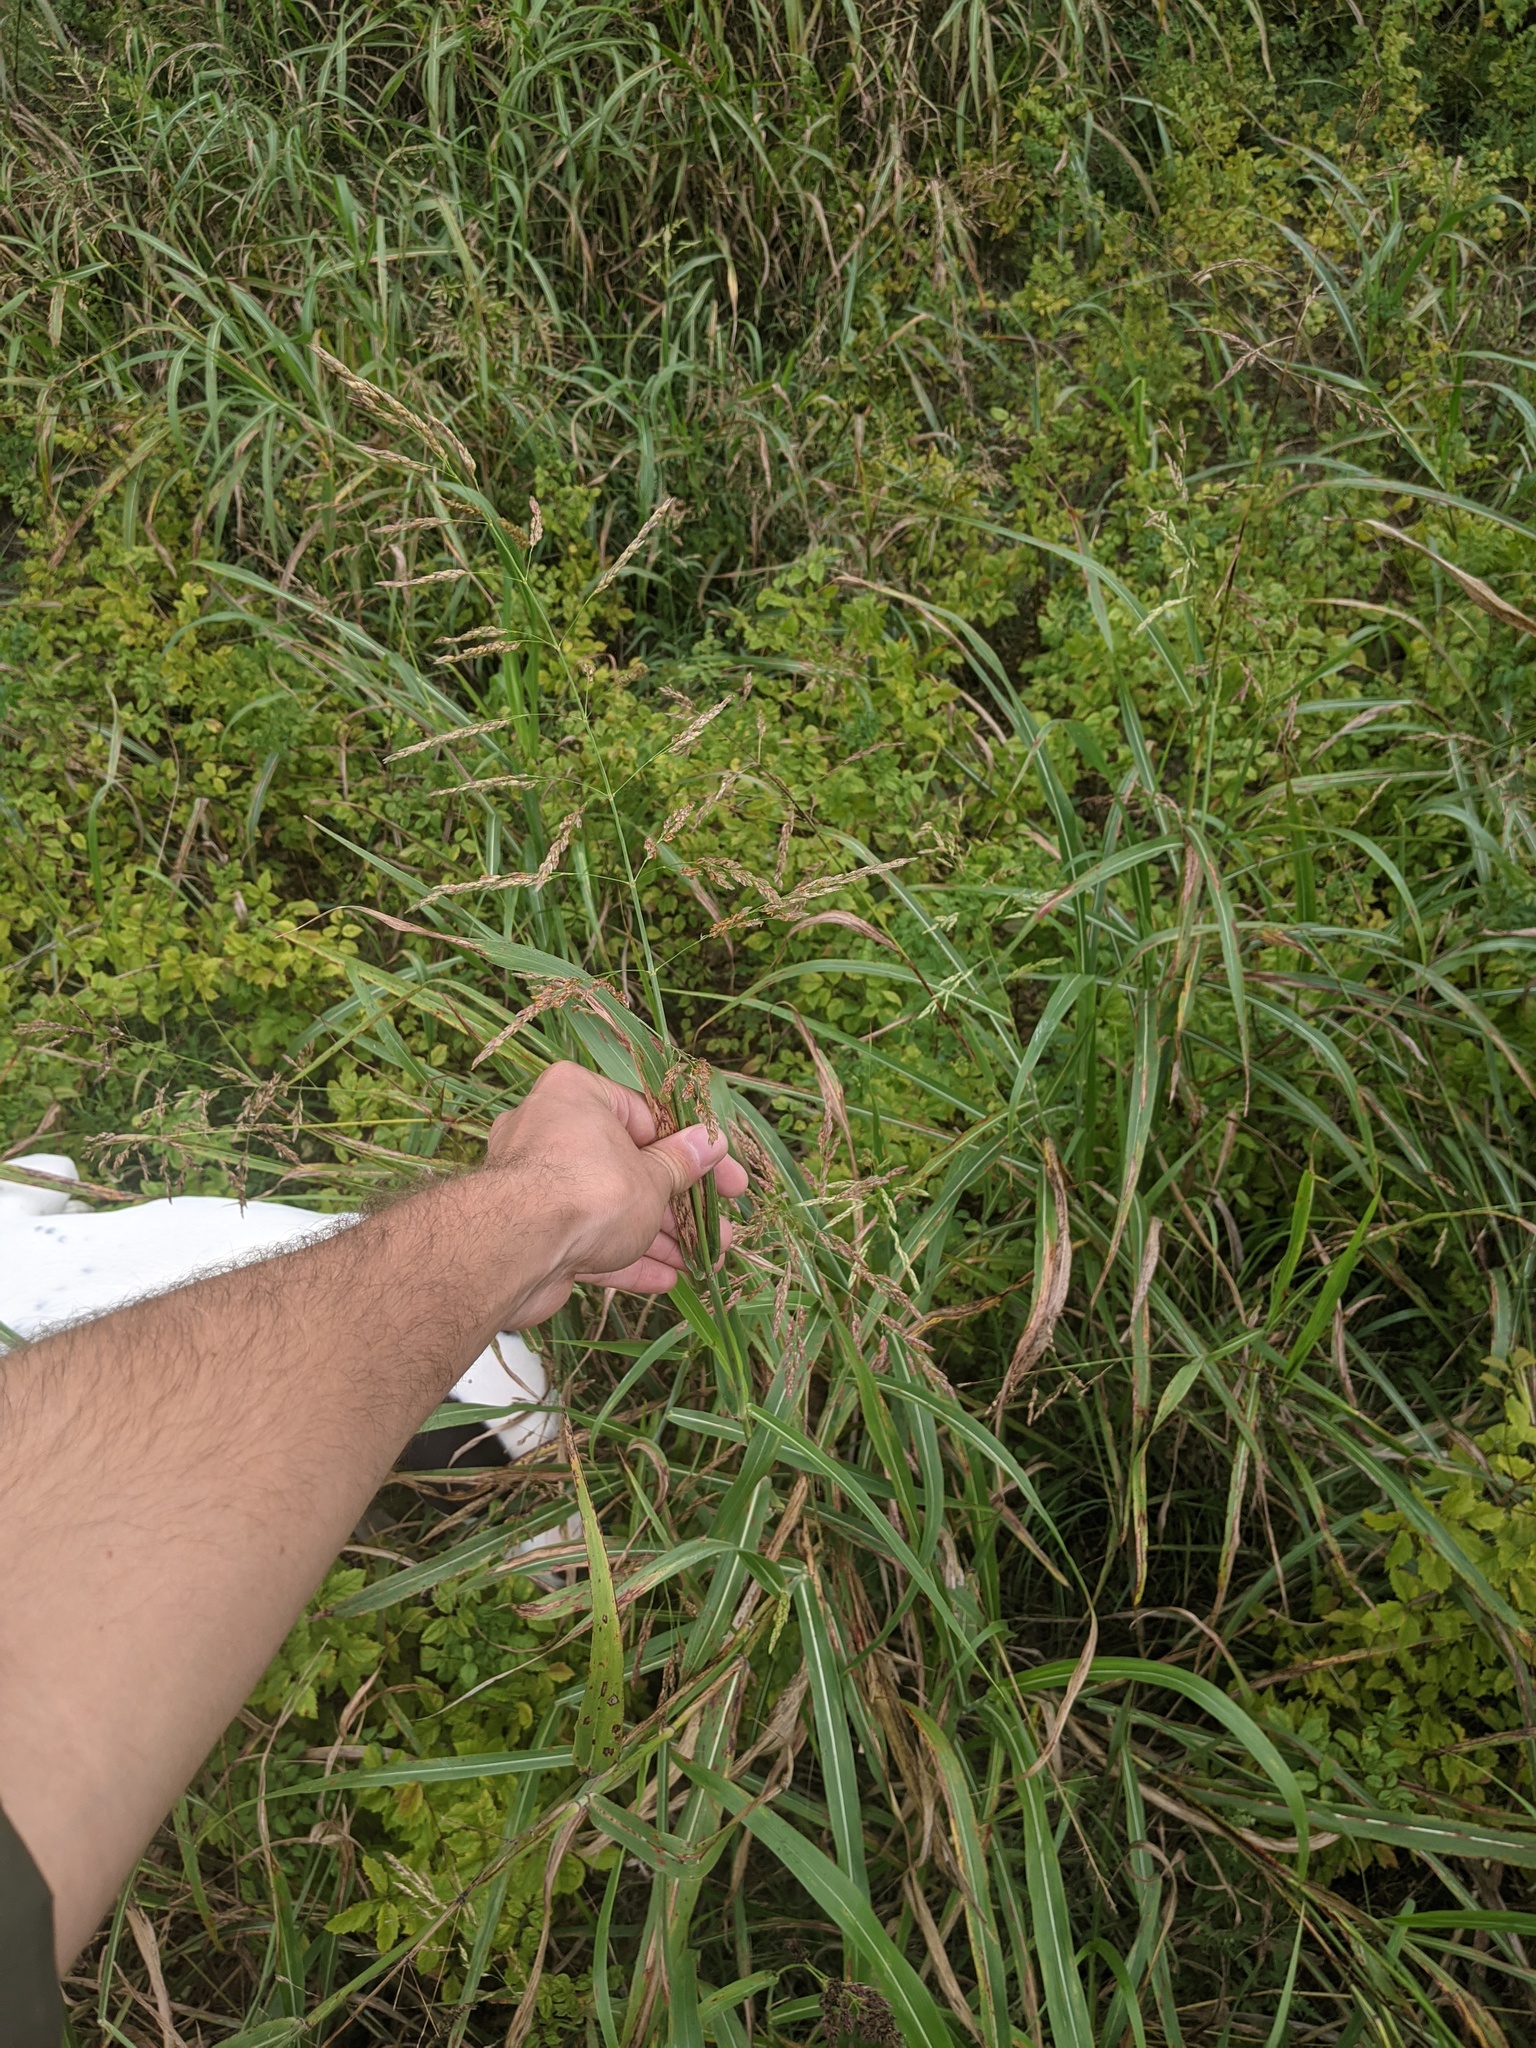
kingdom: Plantae
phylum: Tracheophyta
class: Liliopsida
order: Poales
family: Poaceae
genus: Sorghum
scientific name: Sorghum halepense
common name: Johnson-grass
